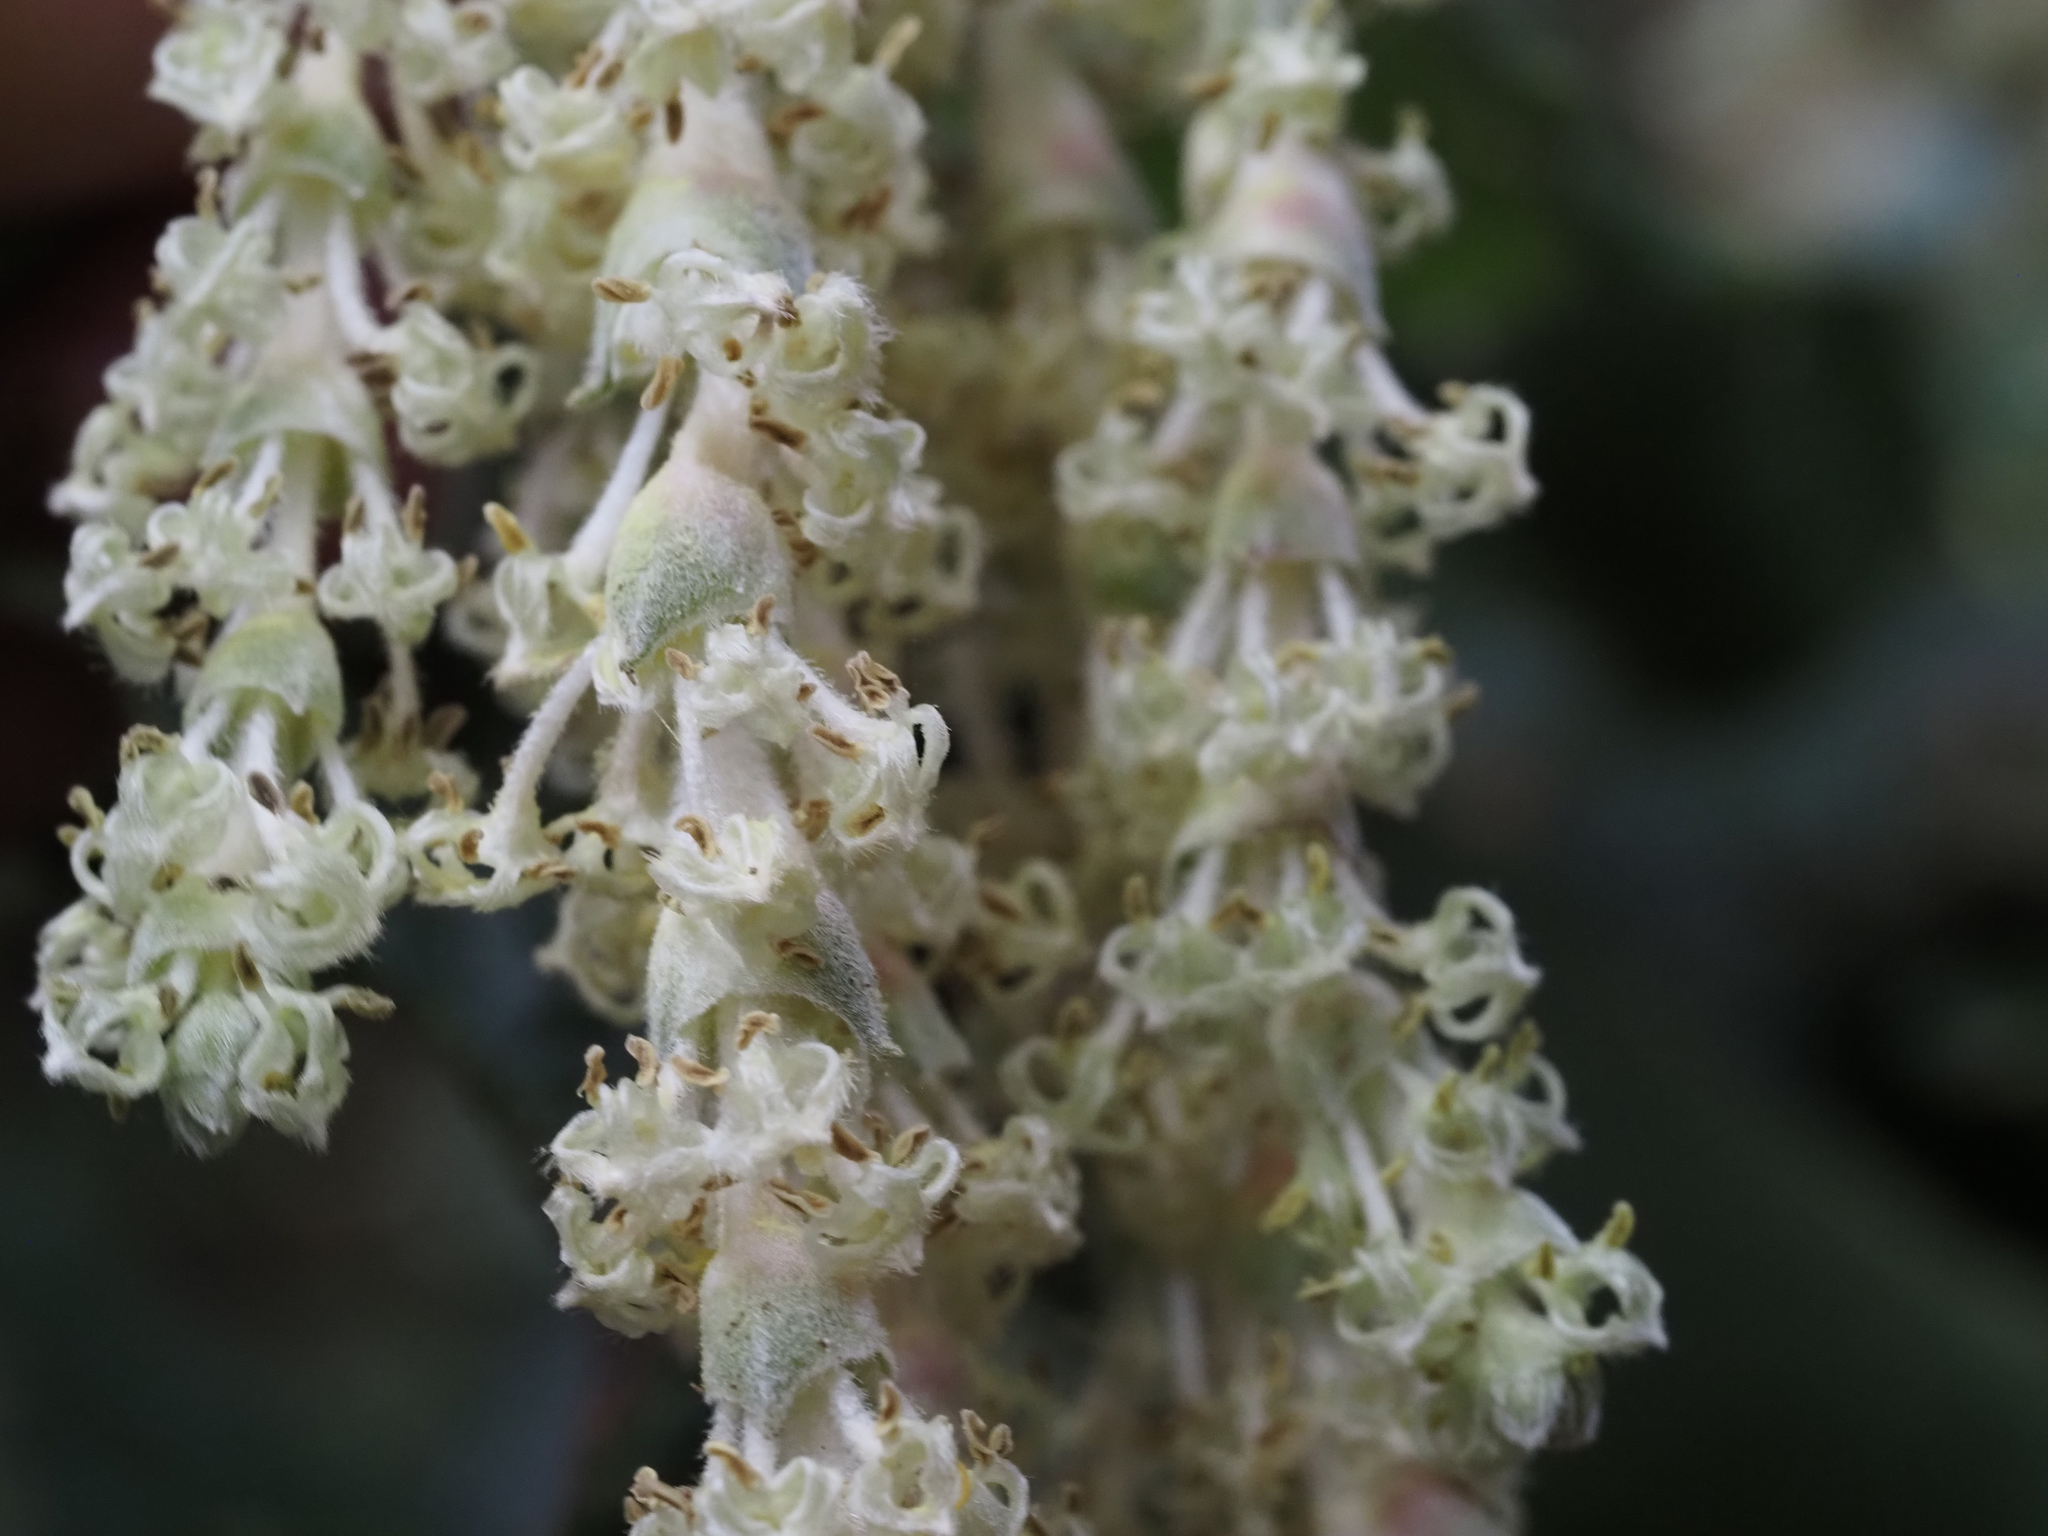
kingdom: Plantae
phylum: Tracheophyta
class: Magnoliopsida
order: Garryales
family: Garryaceae
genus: Garrya
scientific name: Garrya elliptica
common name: Silk-tassel
